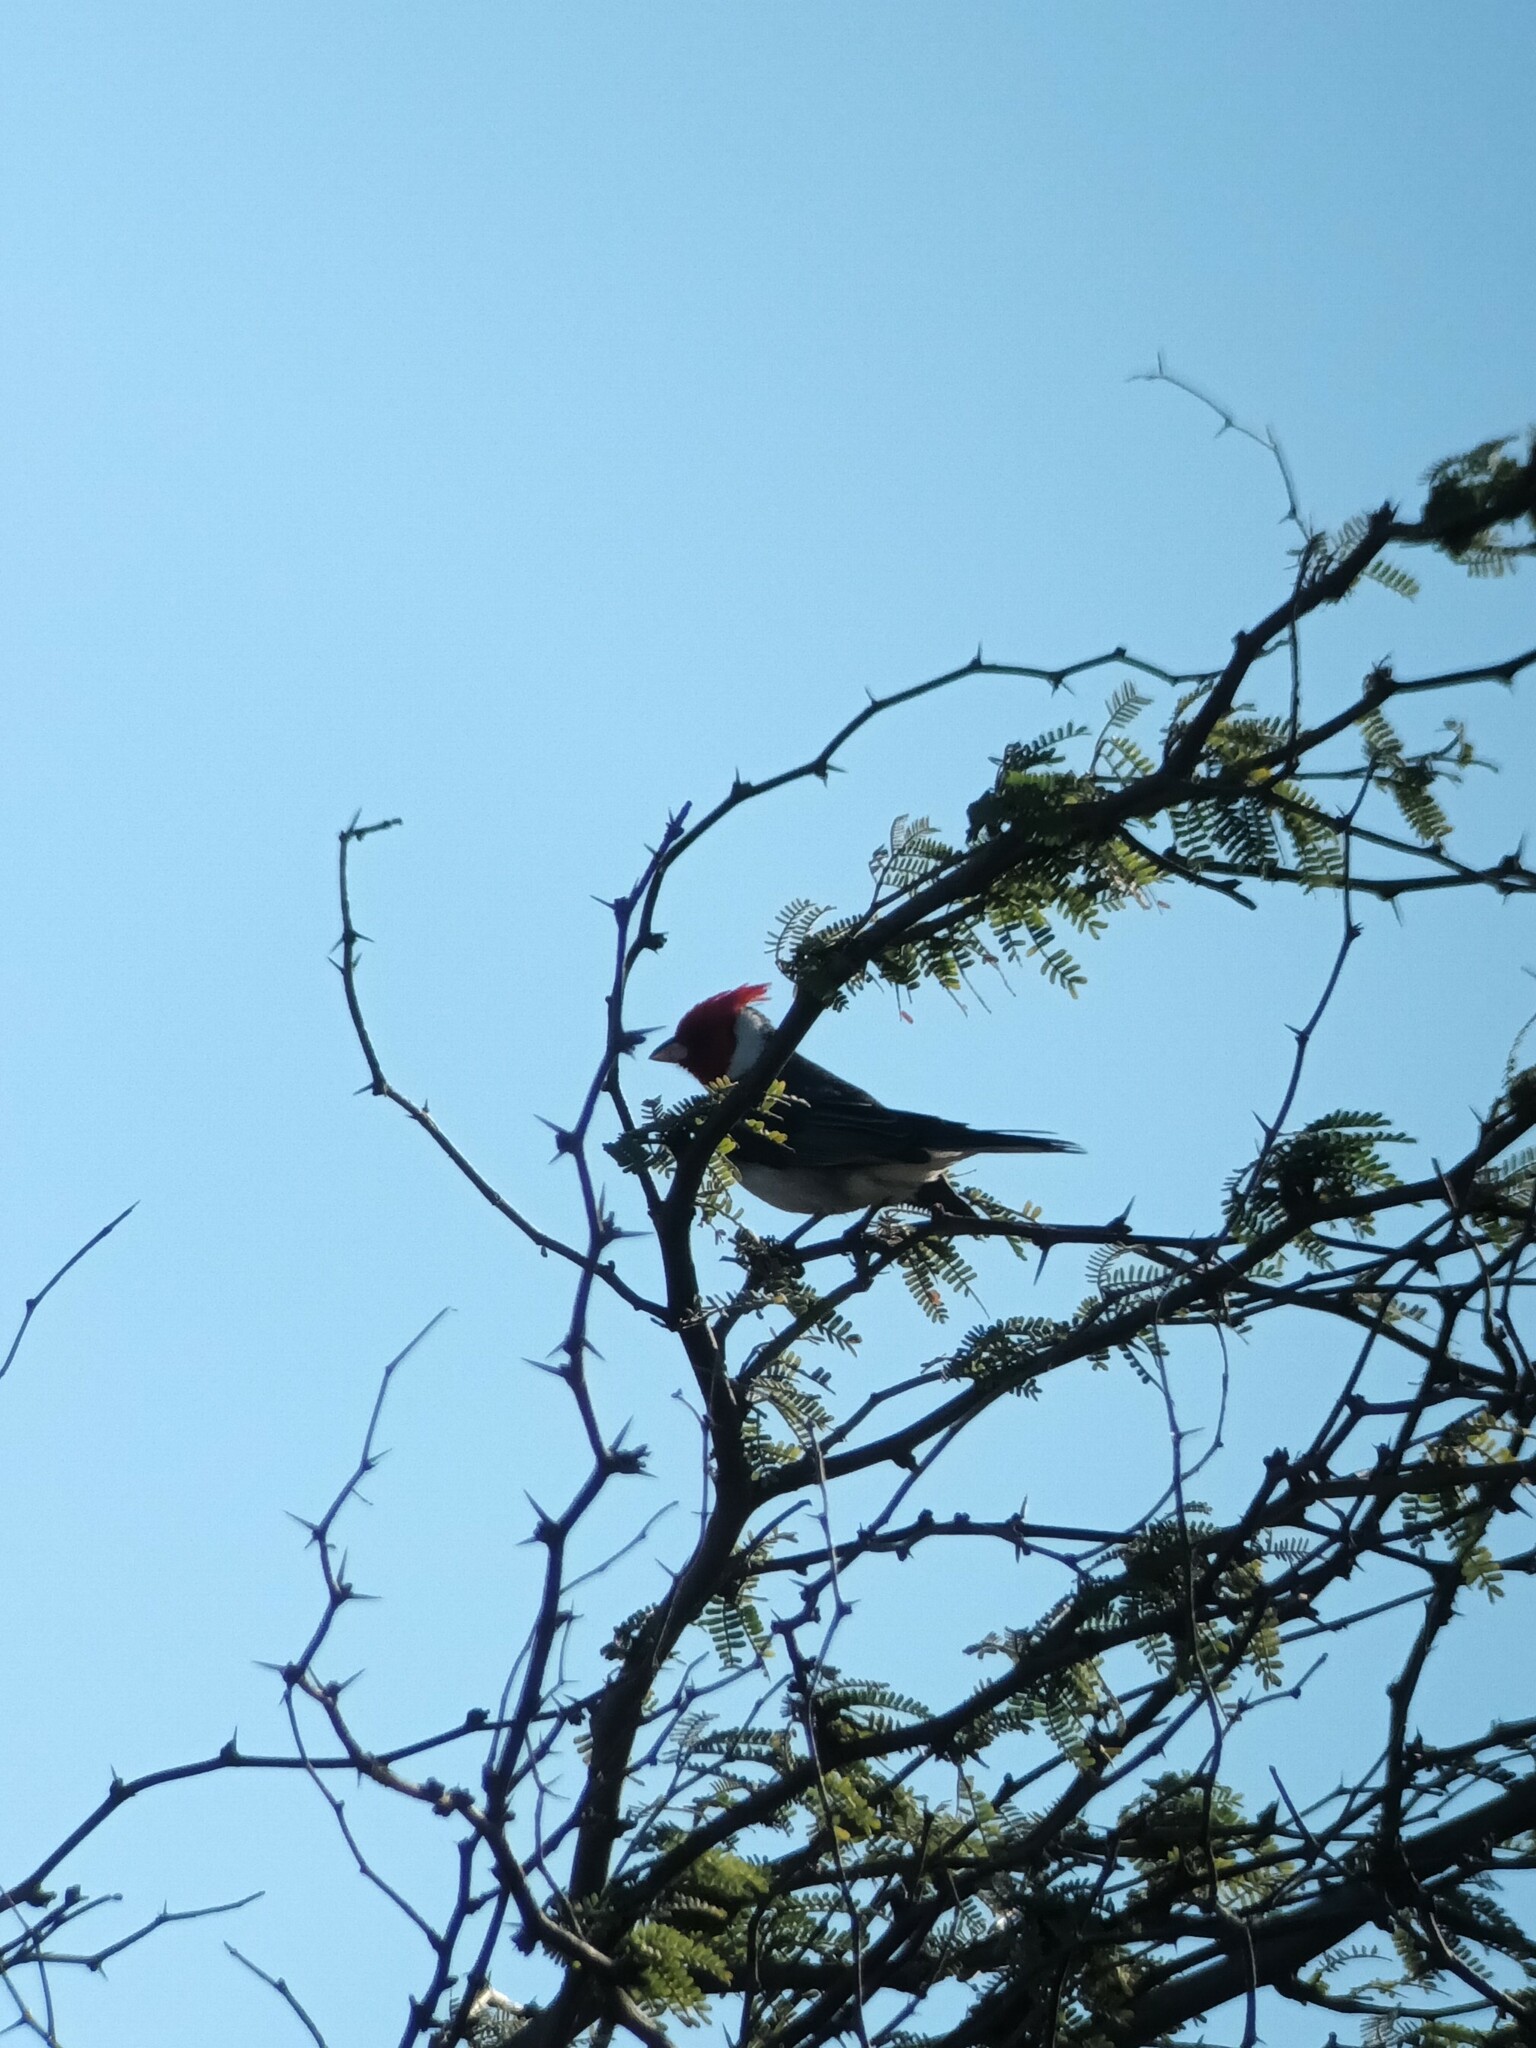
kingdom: Animalia
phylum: Chordata
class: Aves
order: Passeriformes
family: Thraupidae
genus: Paroaria
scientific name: Paroaria coronata
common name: Red-crested cardinal
